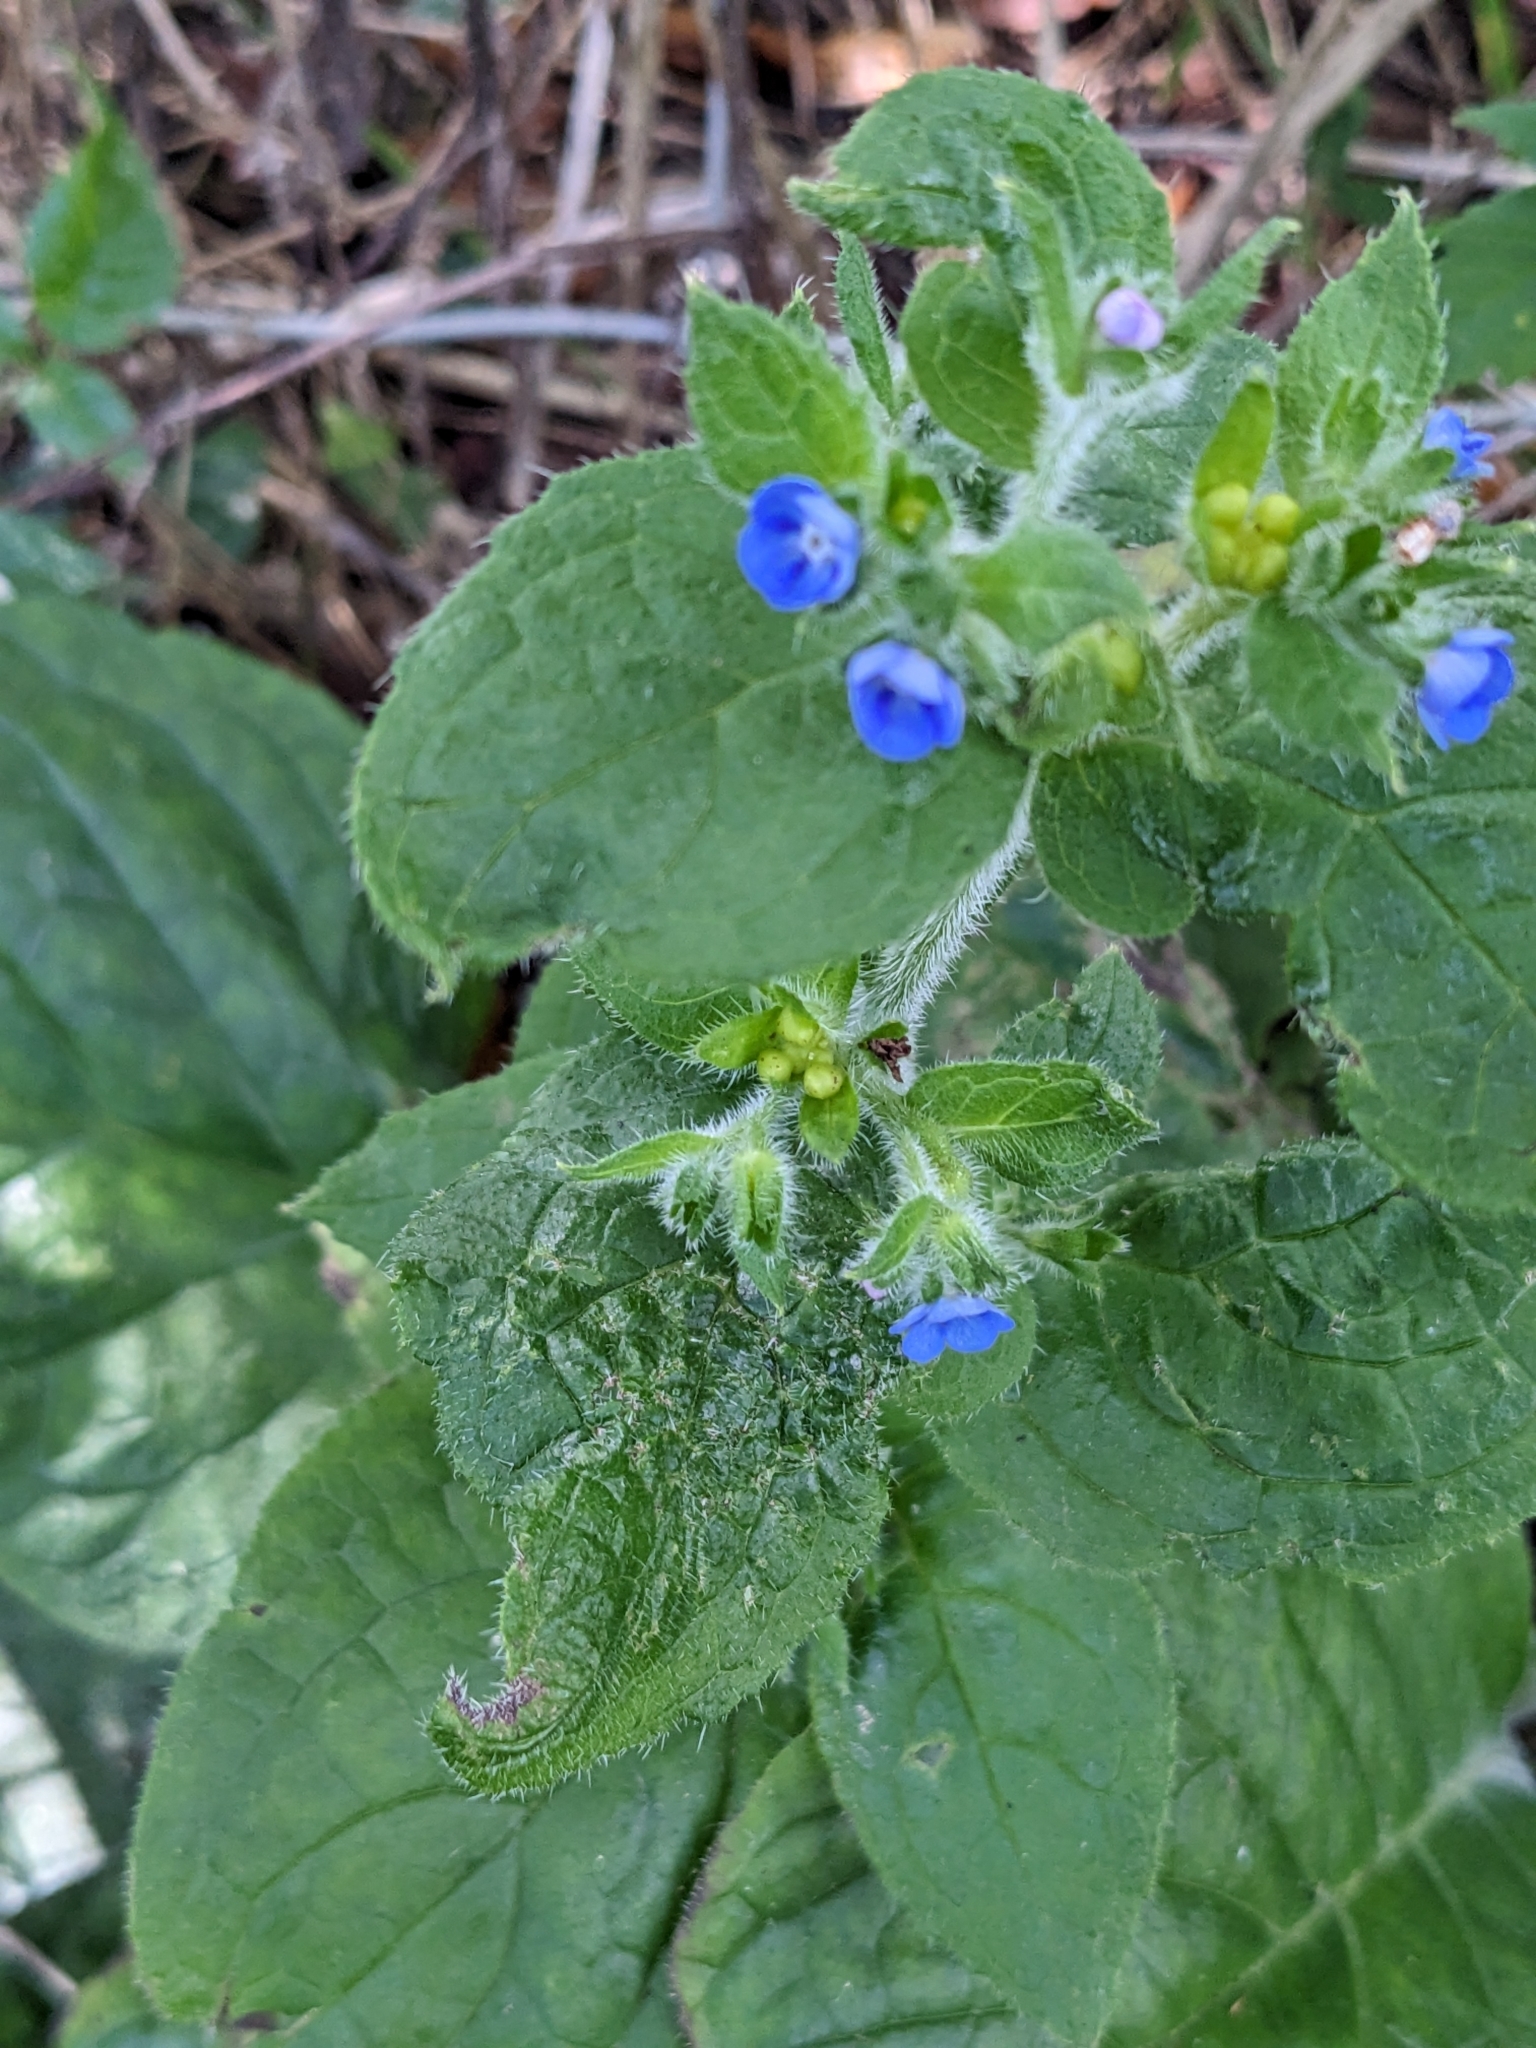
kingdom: Plantae
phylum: Tracheophyta
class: Magnoliopsida
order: Boraginales
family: Boraginaceae
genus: Pentaglottis
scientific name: Pentaglottis sempervirens
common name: Green alkanet
